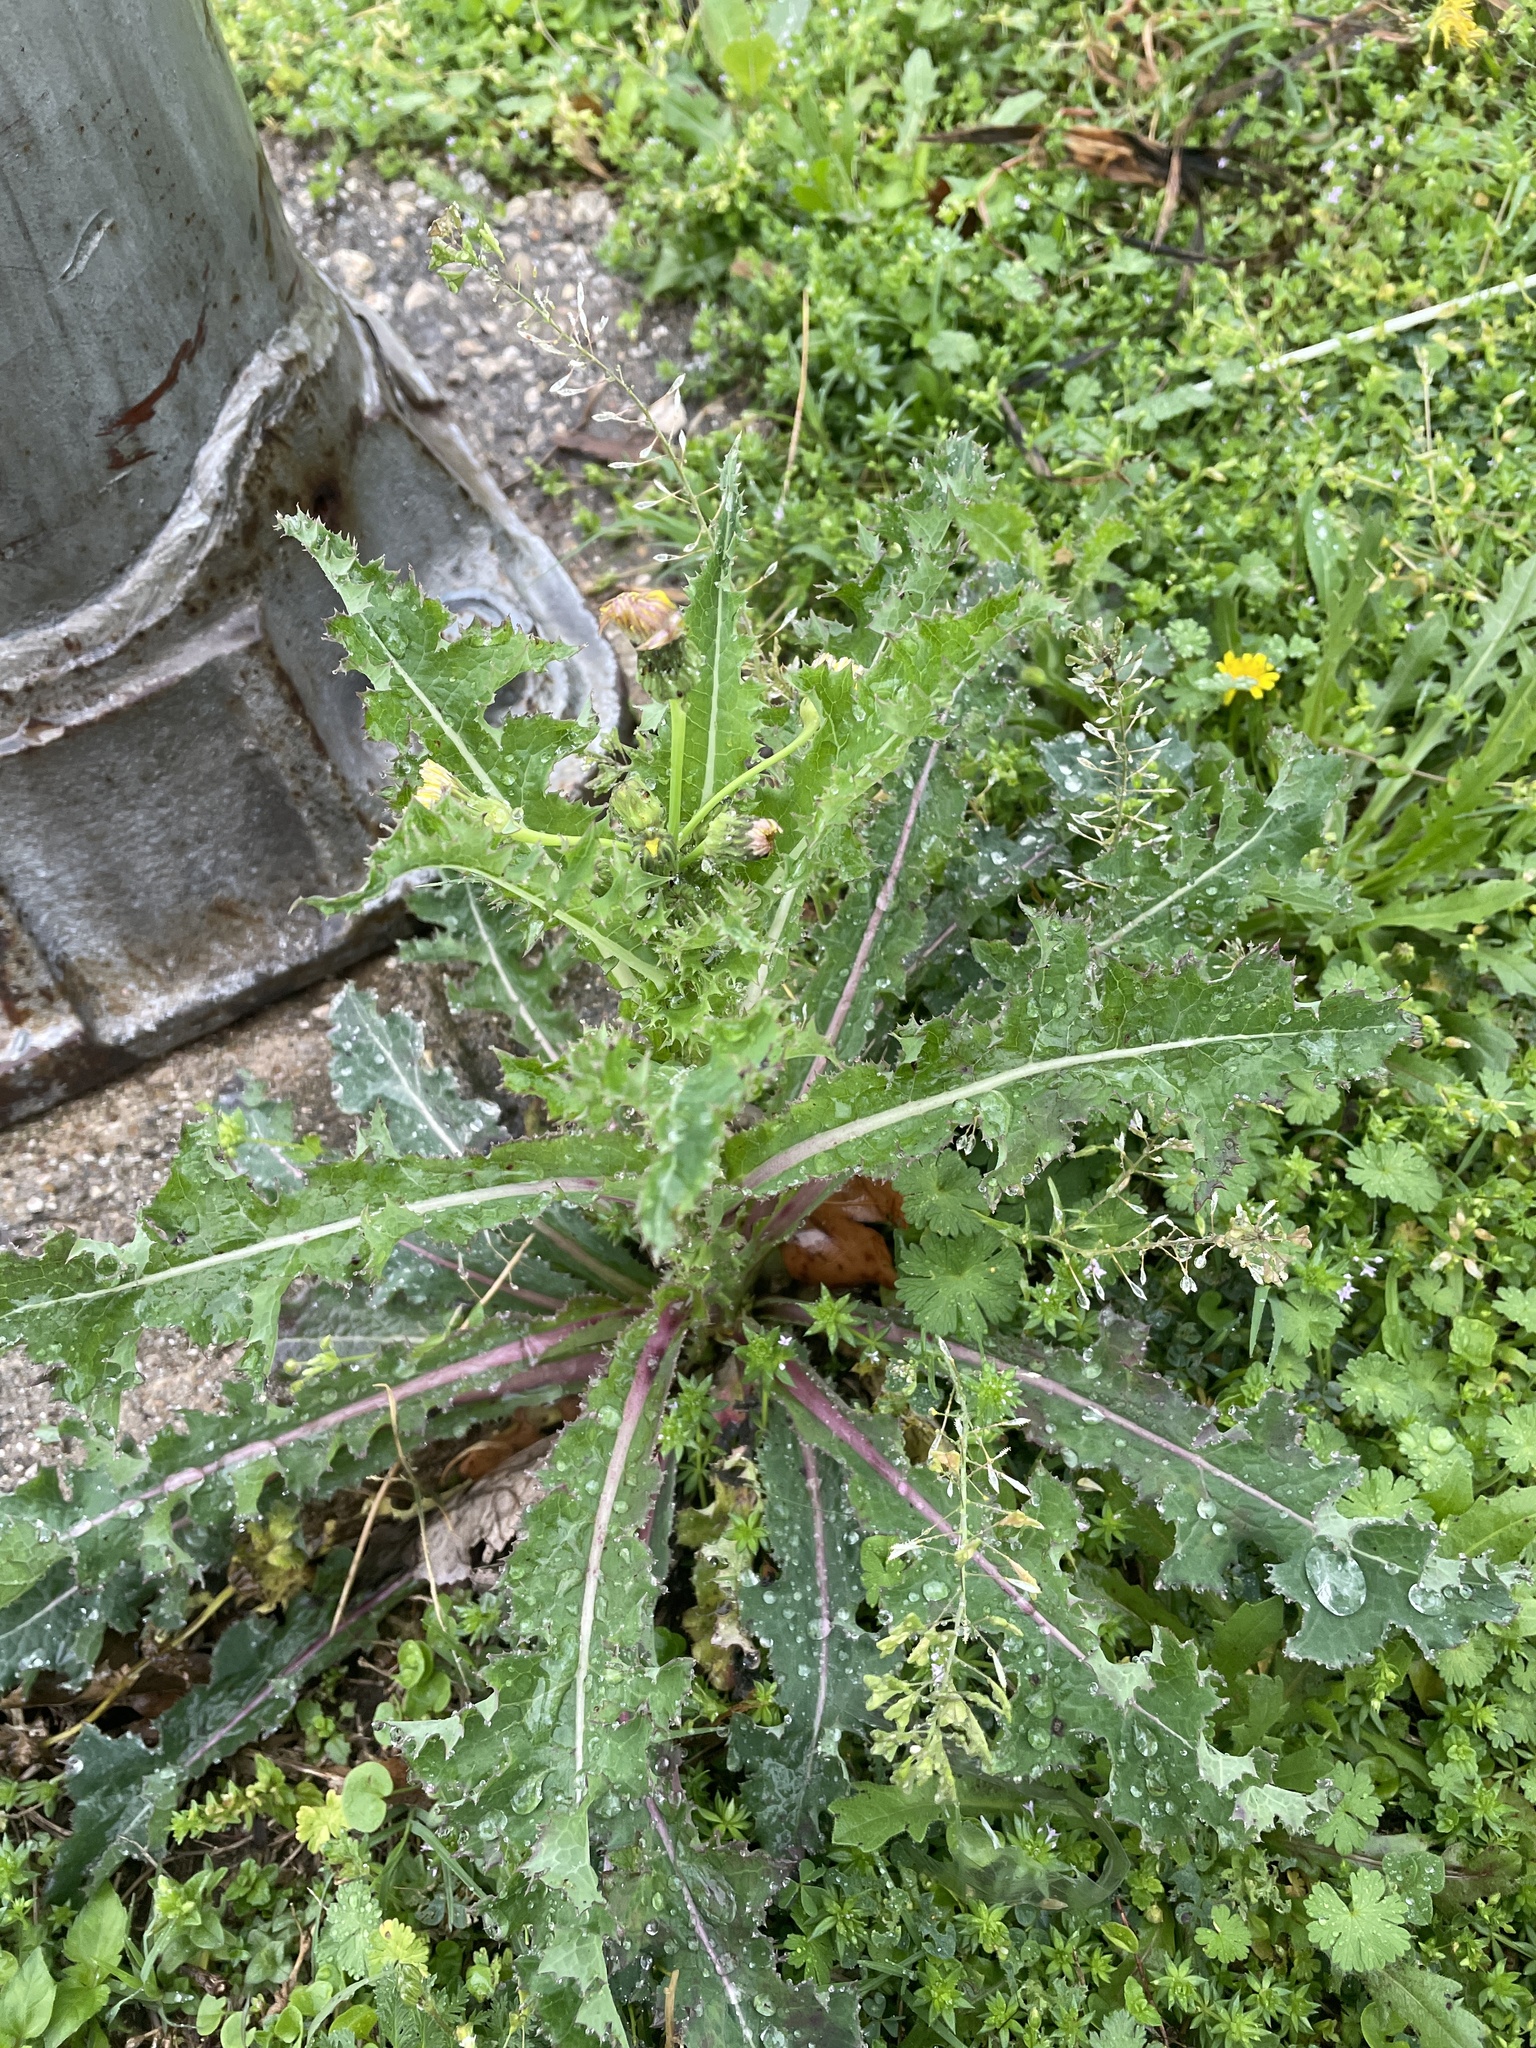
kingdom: Plantae
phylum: Tracheophyta
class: Magnoliopsida
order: Asterales
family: Asteraceae
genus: Sonchus
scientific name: Sonchus asper
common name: Prickly sow-thistle
